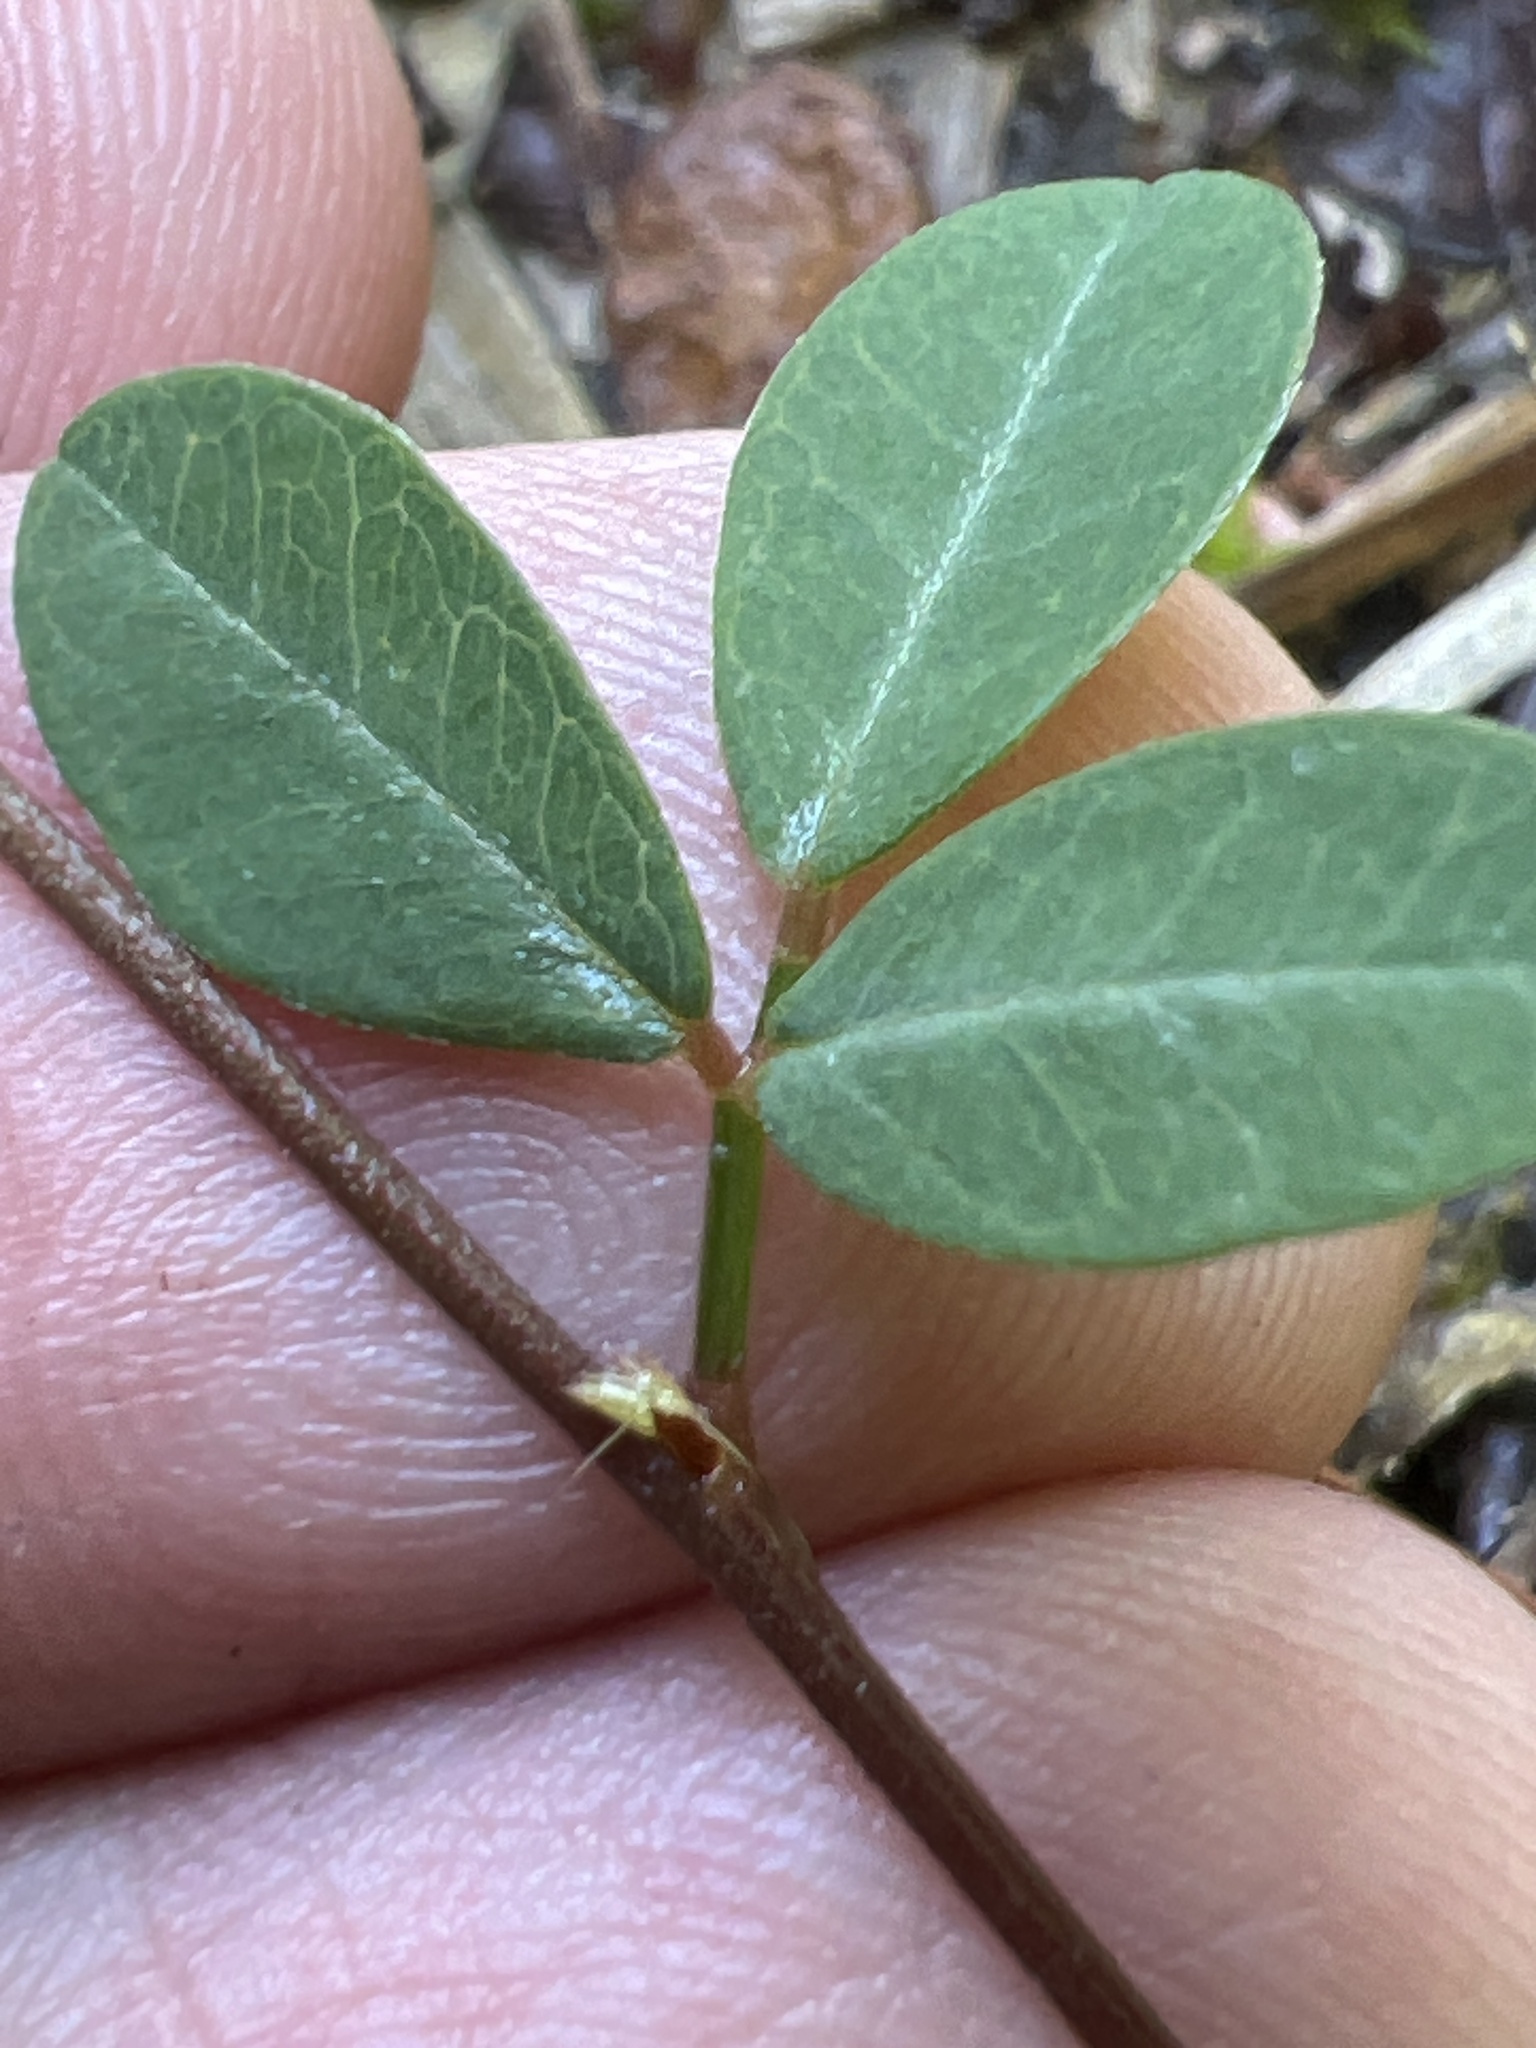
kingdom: Plantae
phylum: Tracheophyta
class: Magnoliopsida
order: Fabales
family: Fabaceae
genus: Lespedeza
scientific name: Lespedeza repens
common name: Creeping bush-clover
